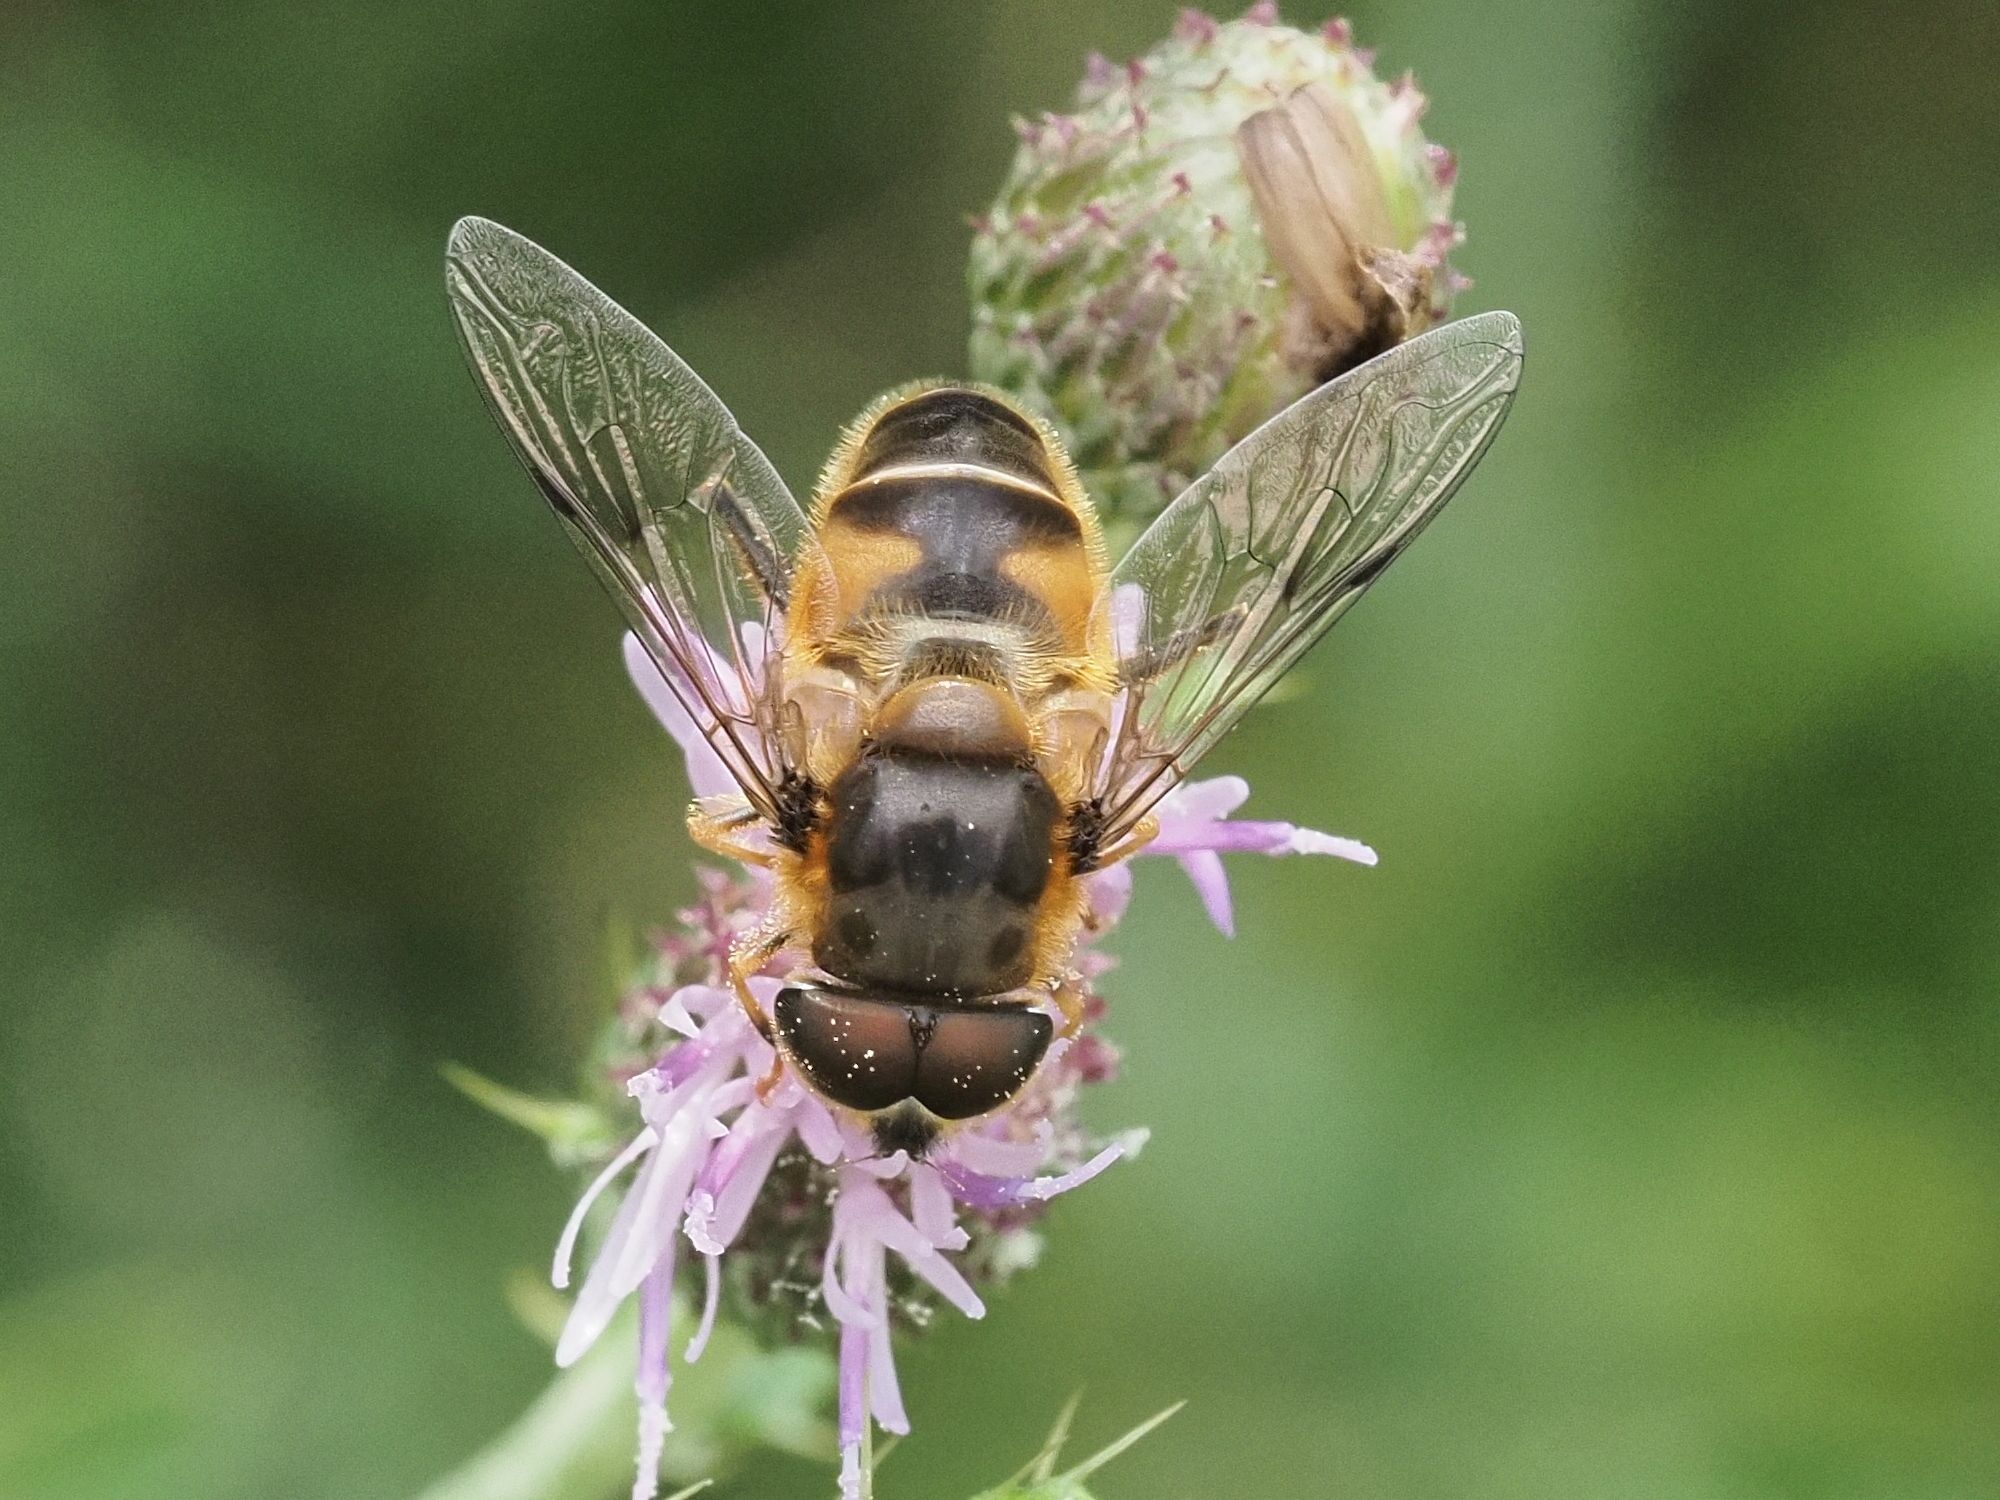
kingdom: Animalia
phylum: Arthropoda
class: Insecta
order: Diptera
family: Syrphidae
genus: Eristalis
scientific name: Eristalis pertinax
